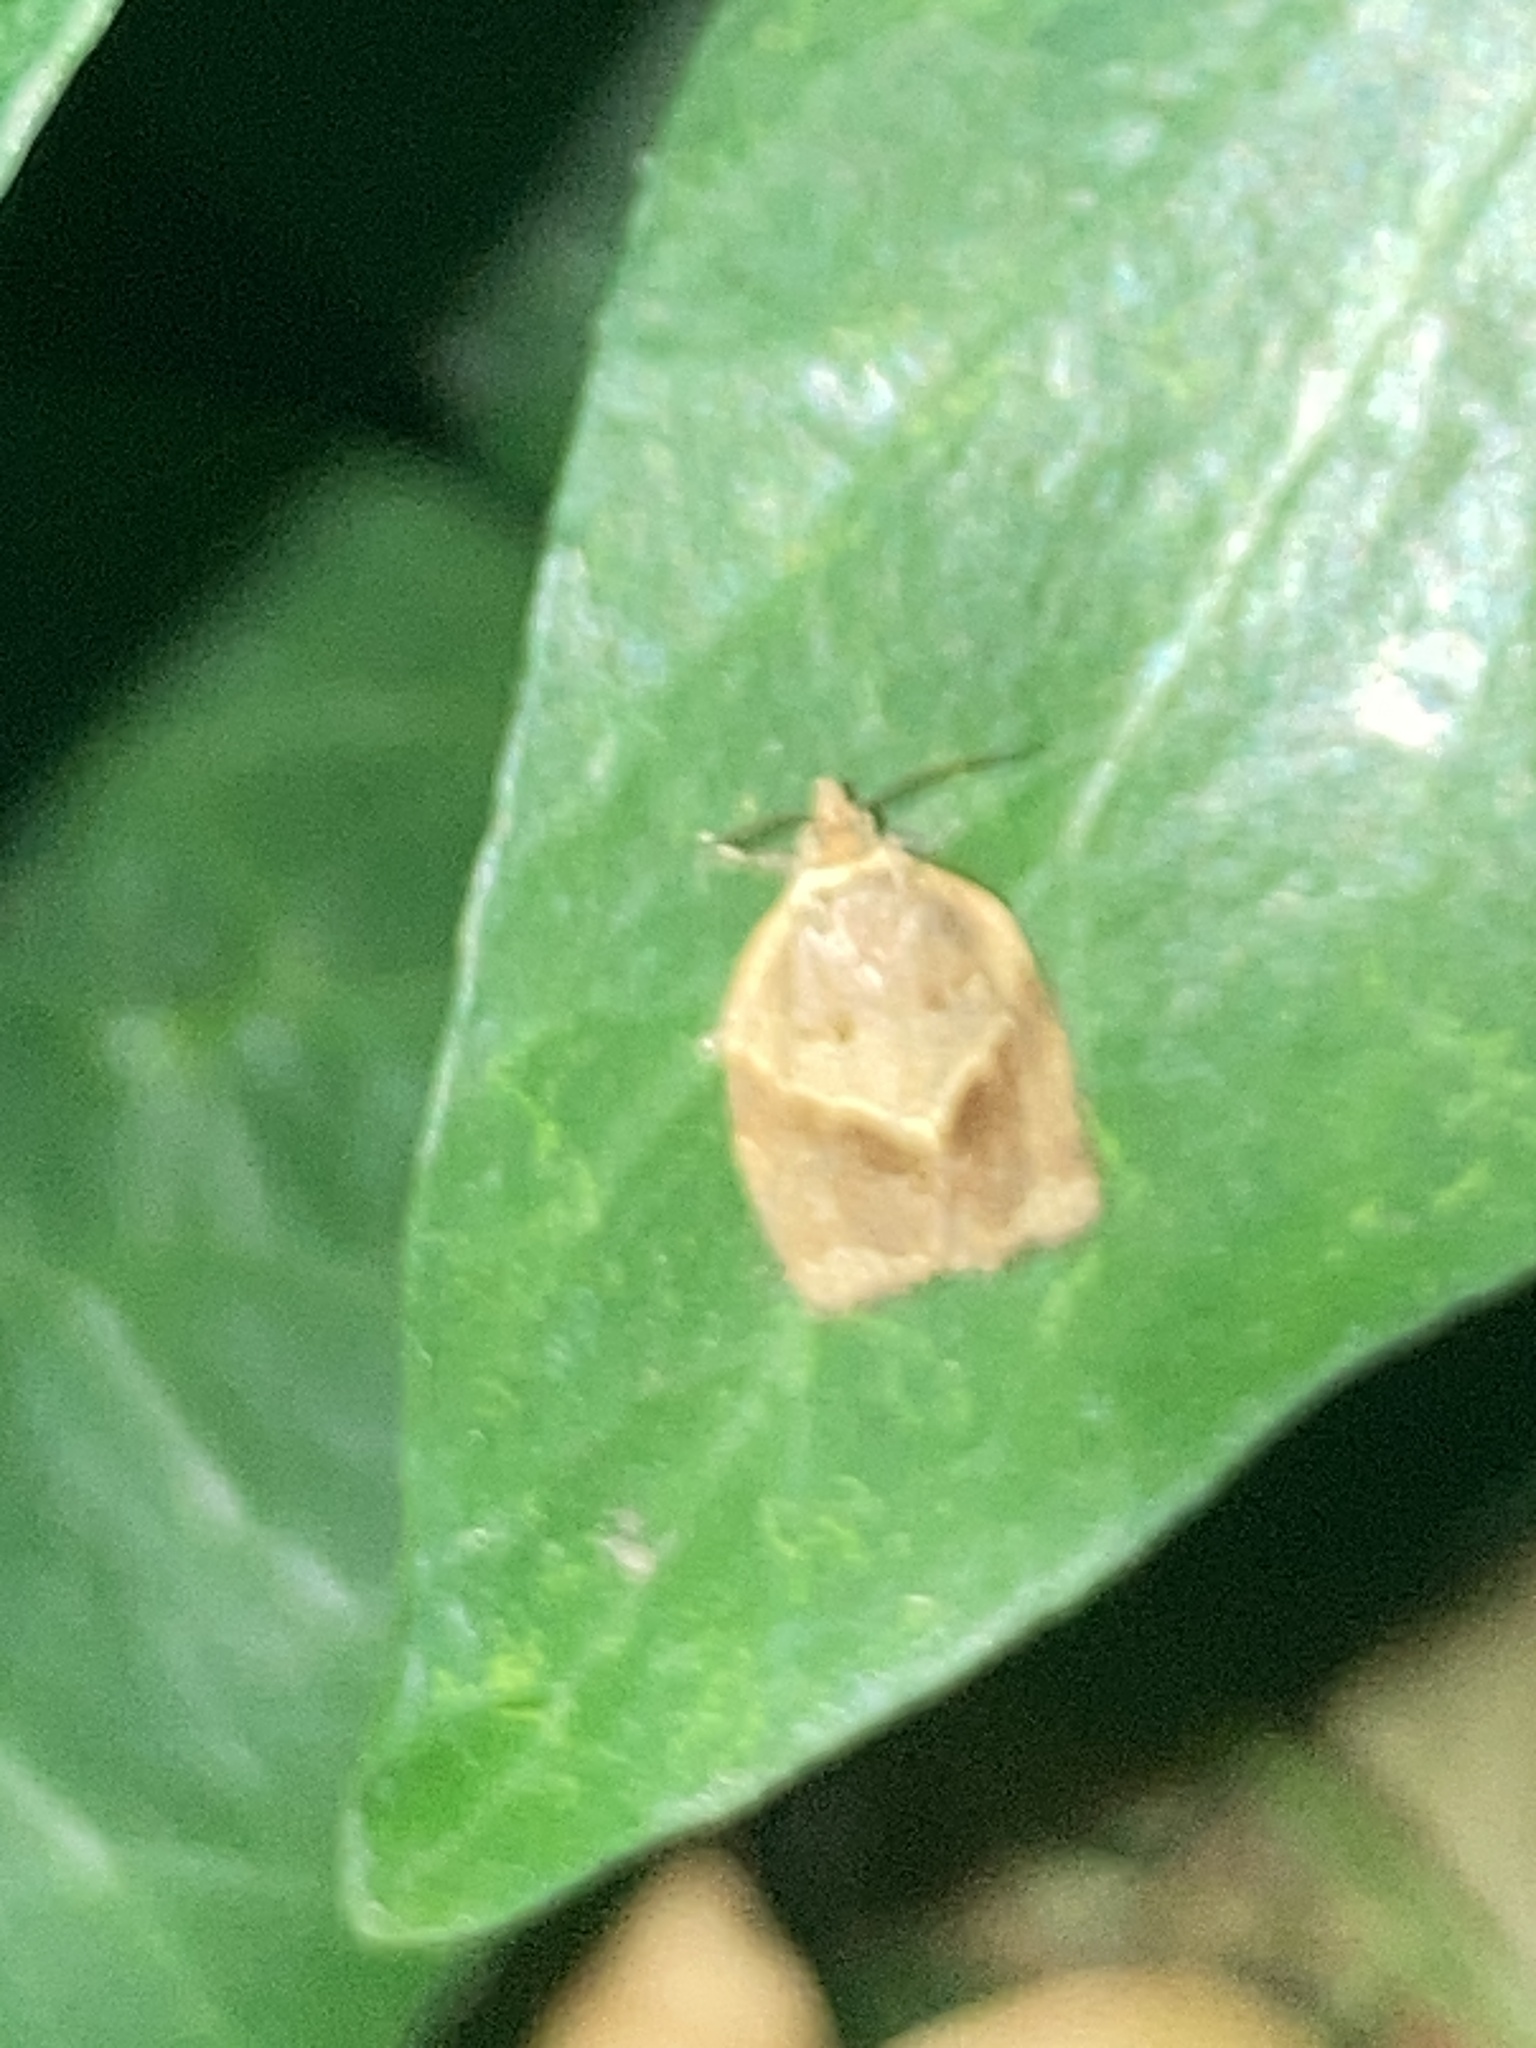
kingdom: Animalia
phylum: Arthropoda
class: Insecta
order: Lepidoptera
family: Tortricidae
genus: Clepsis
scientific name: Clepsis dumicolana
